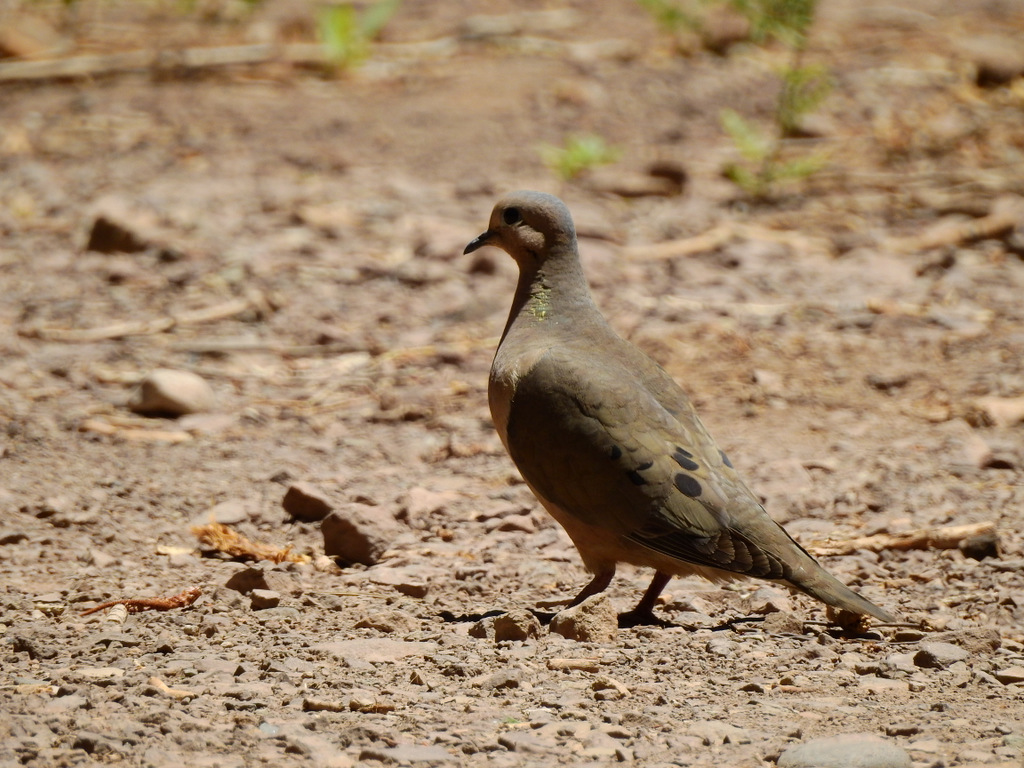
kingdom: Animalia
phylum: Chordata
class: Aves
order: Columbiformes
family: Columbidae
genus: Zenaida
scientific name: Zenaida auriculata
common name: Eared dove
